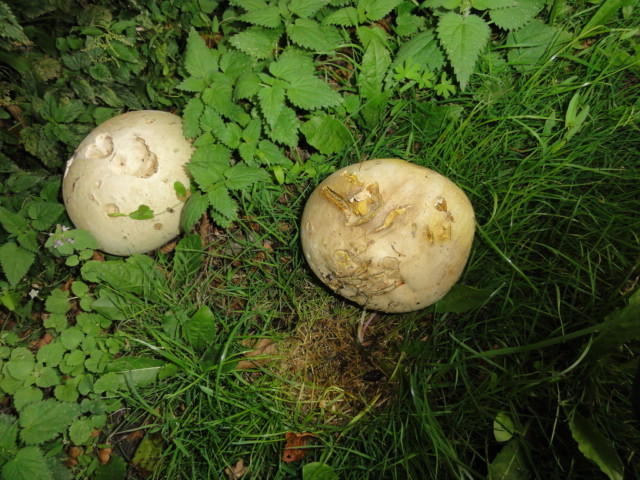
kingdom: Fungi
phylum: Basidiomycota
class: Agaricomycetes
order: Agaricales
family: Lycoperdaceae
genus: Calvatia
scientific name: Calvatia gigantea
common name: Giant puffball
